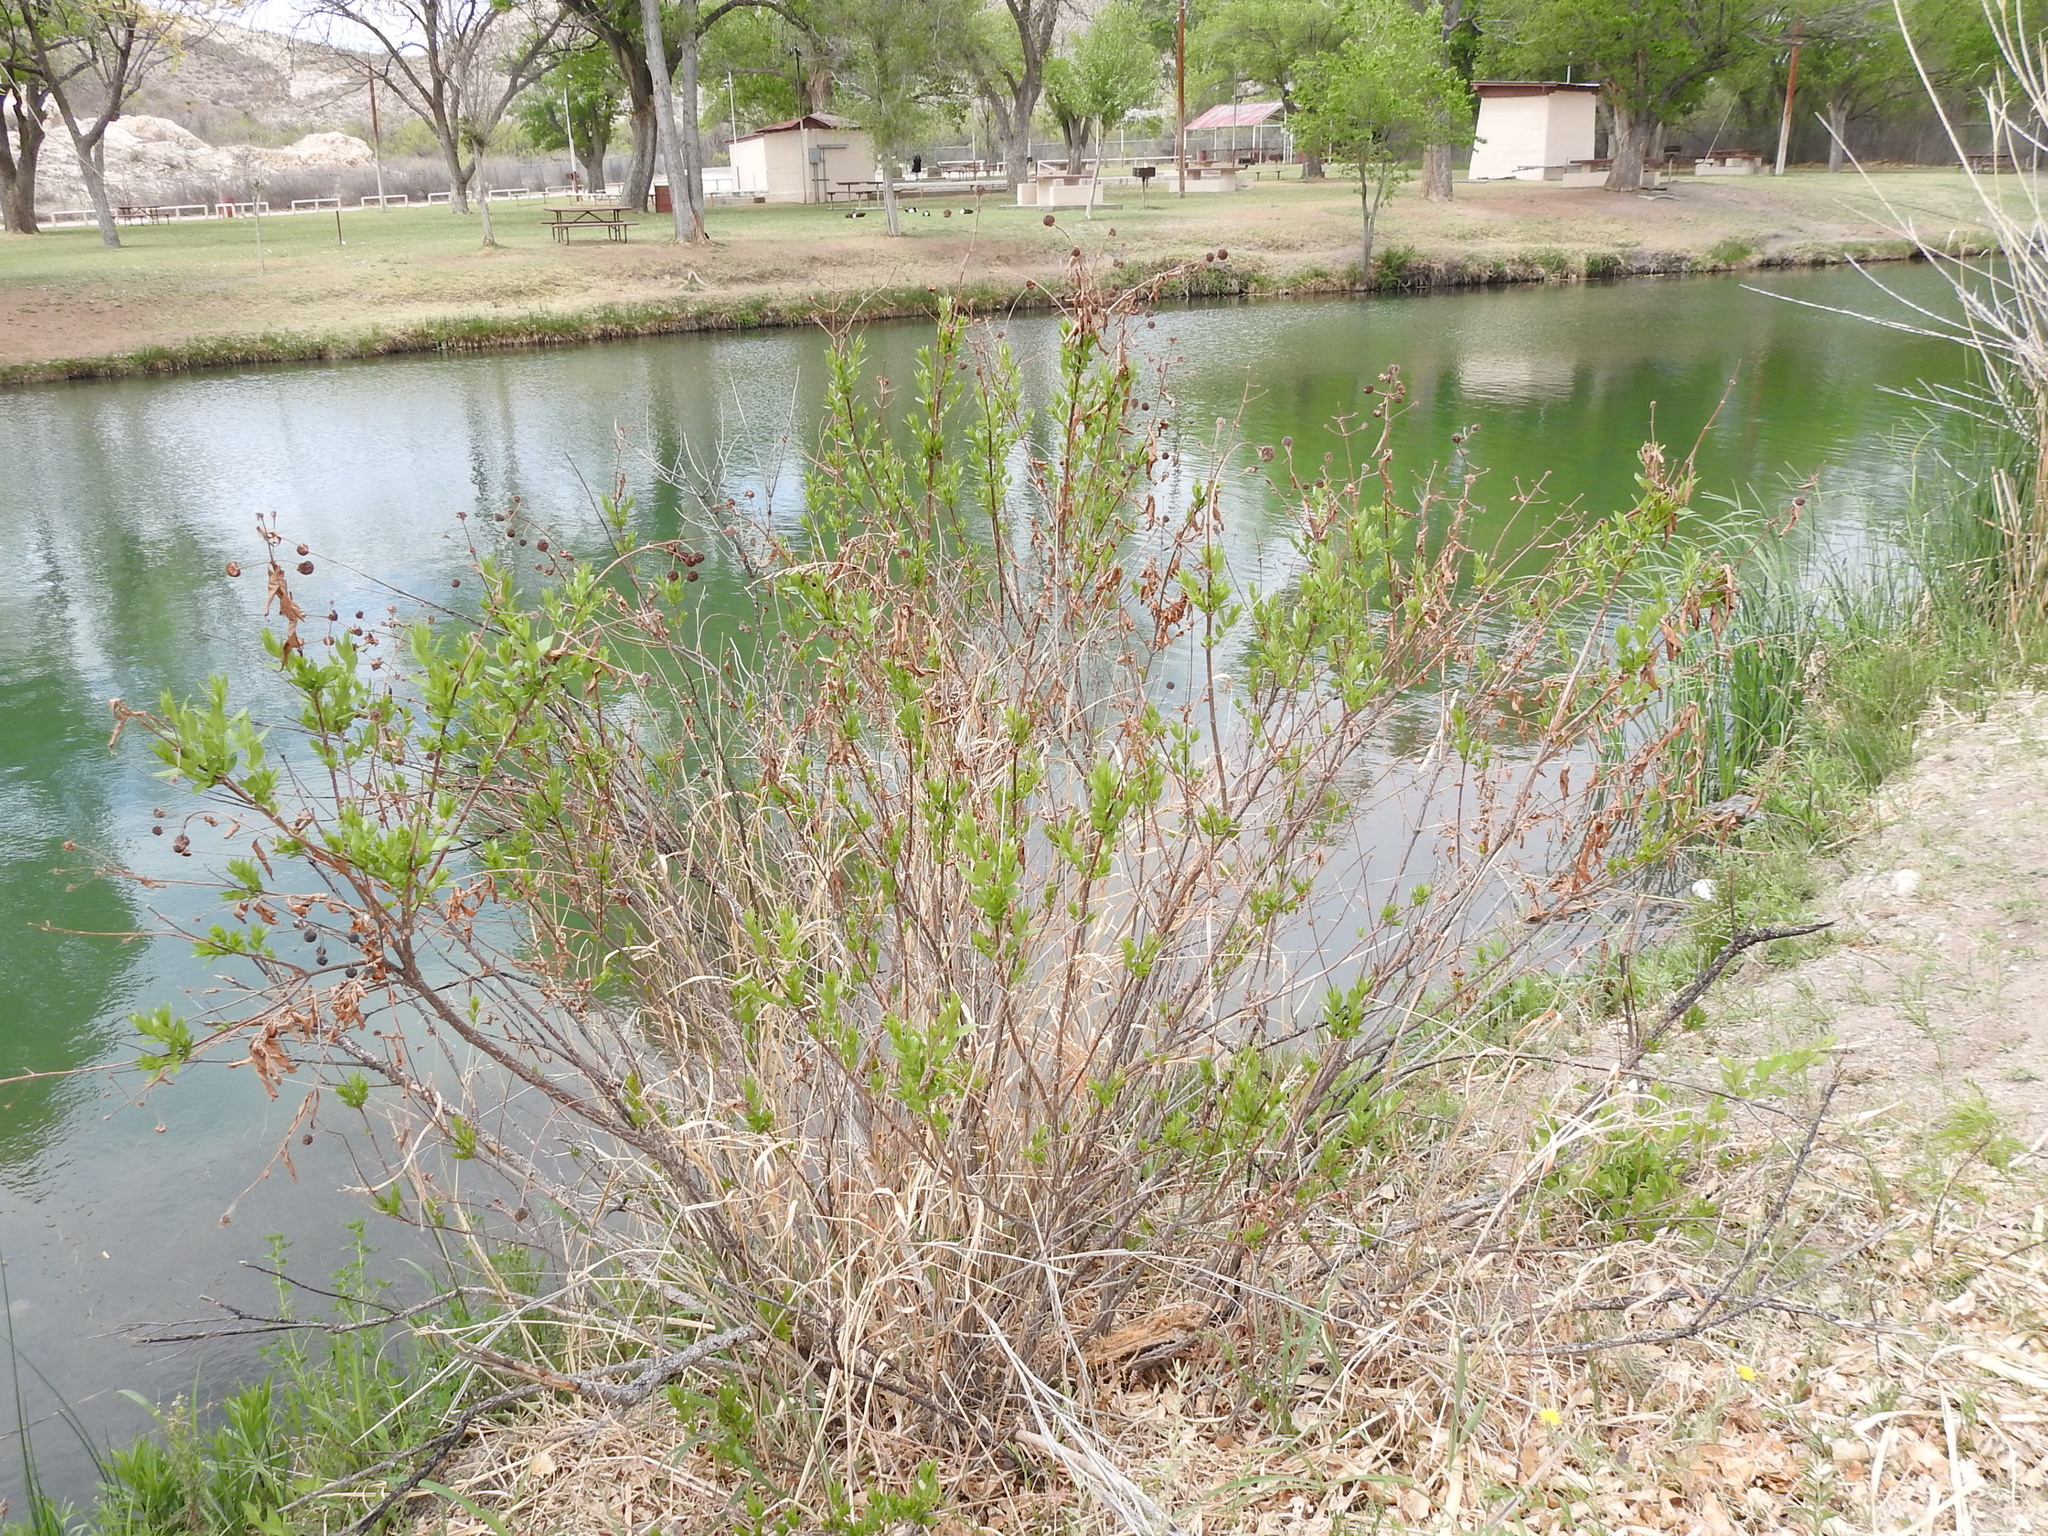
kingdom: Plantae
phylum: Tracheophyta
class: Magnoliopsida
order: Gentianales
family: Rubiaceae
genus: Cephalanthus
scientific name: Cephalanthus occidentalis
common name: Button-willow
